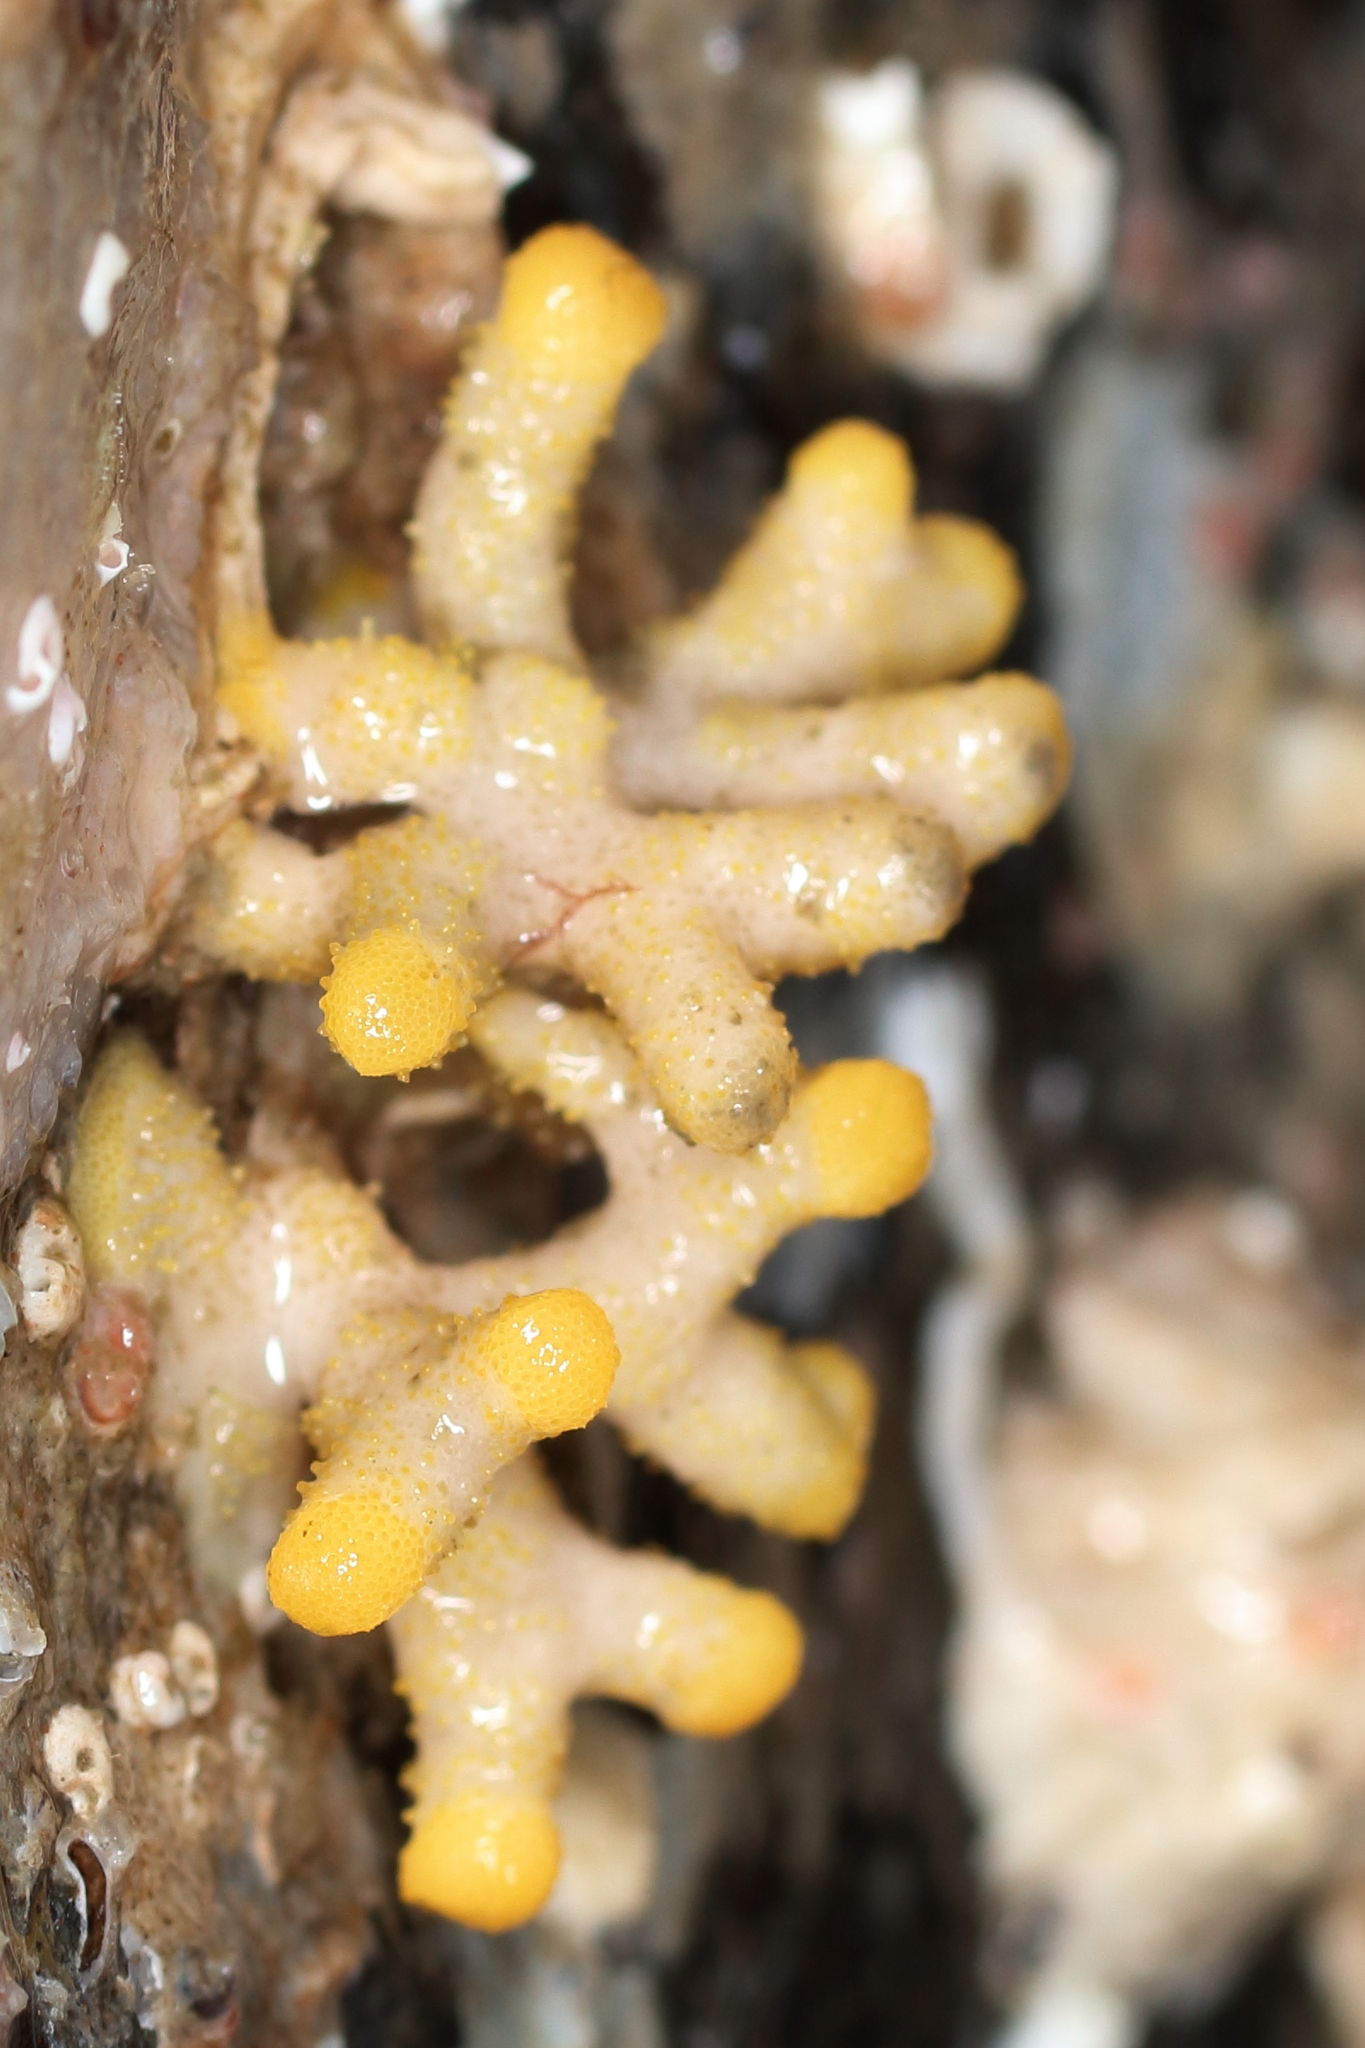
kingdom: Animalia
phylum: Bryozoa
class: Stenolaemata
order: Cyclostomatida
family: Heteroporidae
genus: Heteropora
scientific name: Heteropora pacifica
